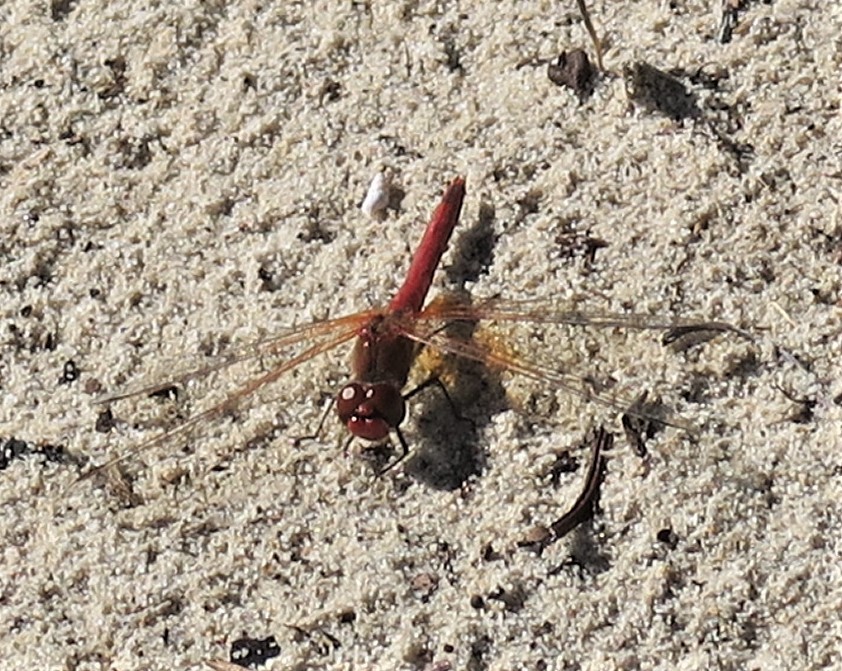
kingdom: Animalia
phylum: Arthropoda
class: Insecta
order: Odonata
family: Libellulidae
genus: Sympetrum
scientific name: Sympetrum fonscolombii
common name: Red-veined darter
